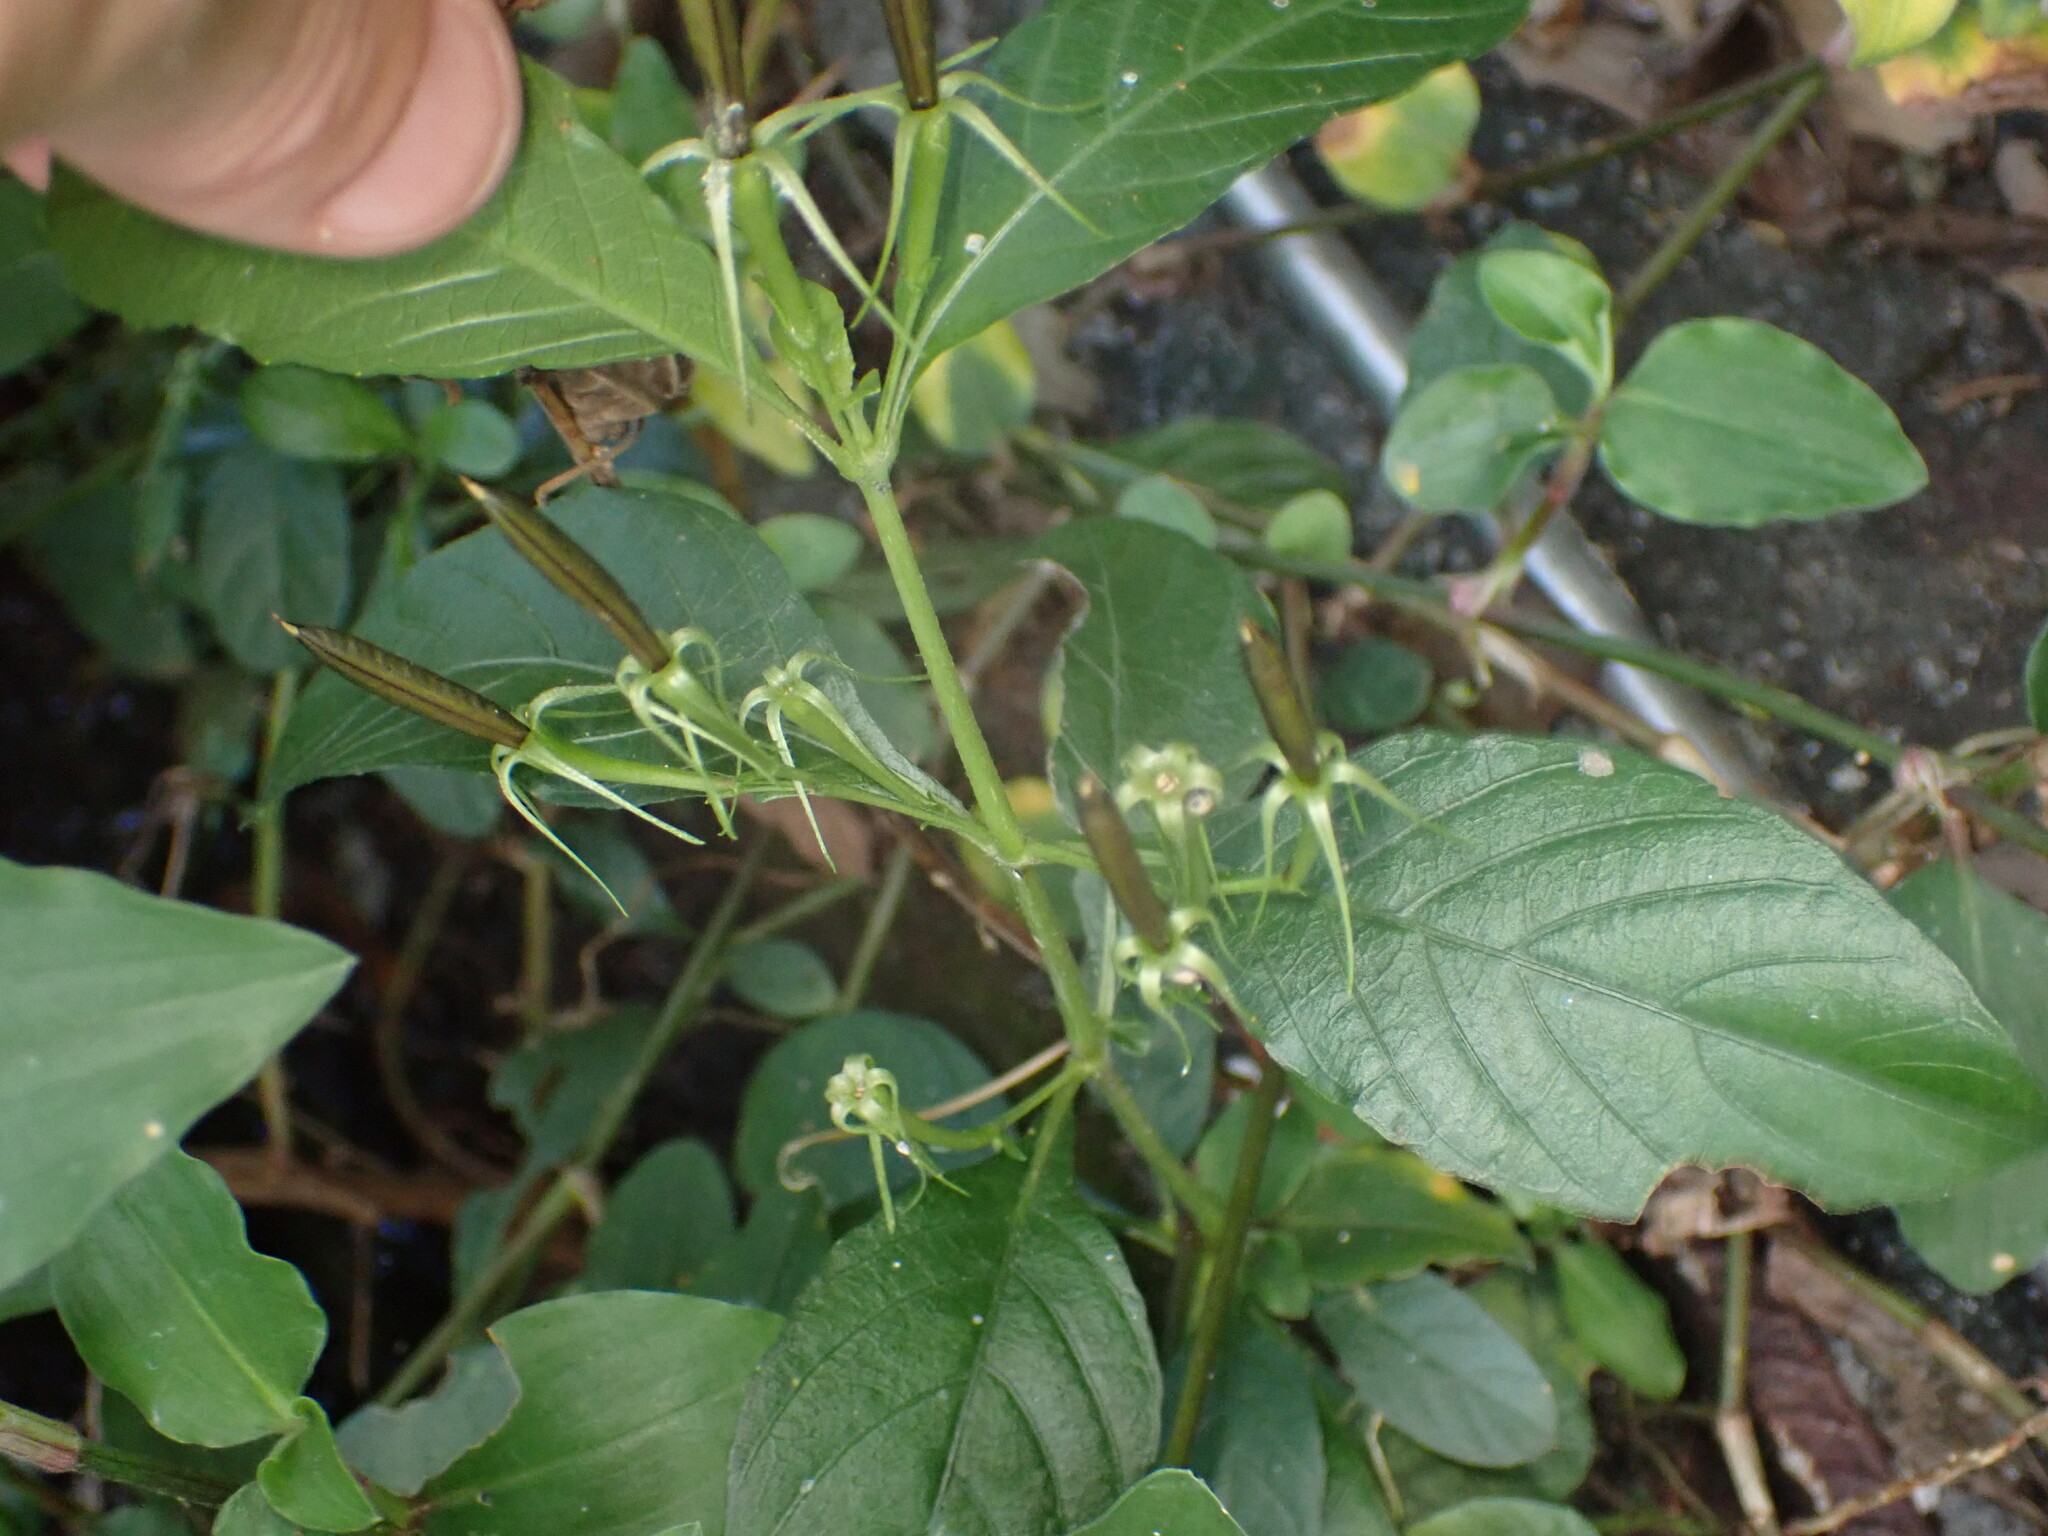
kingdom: Plantae
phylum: Tracheophyta
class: Magnoliopsida
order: Lamiales
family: Acanthaceae
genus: Ruellia
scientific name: Ruellia tuberosa
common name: Devil's bit
